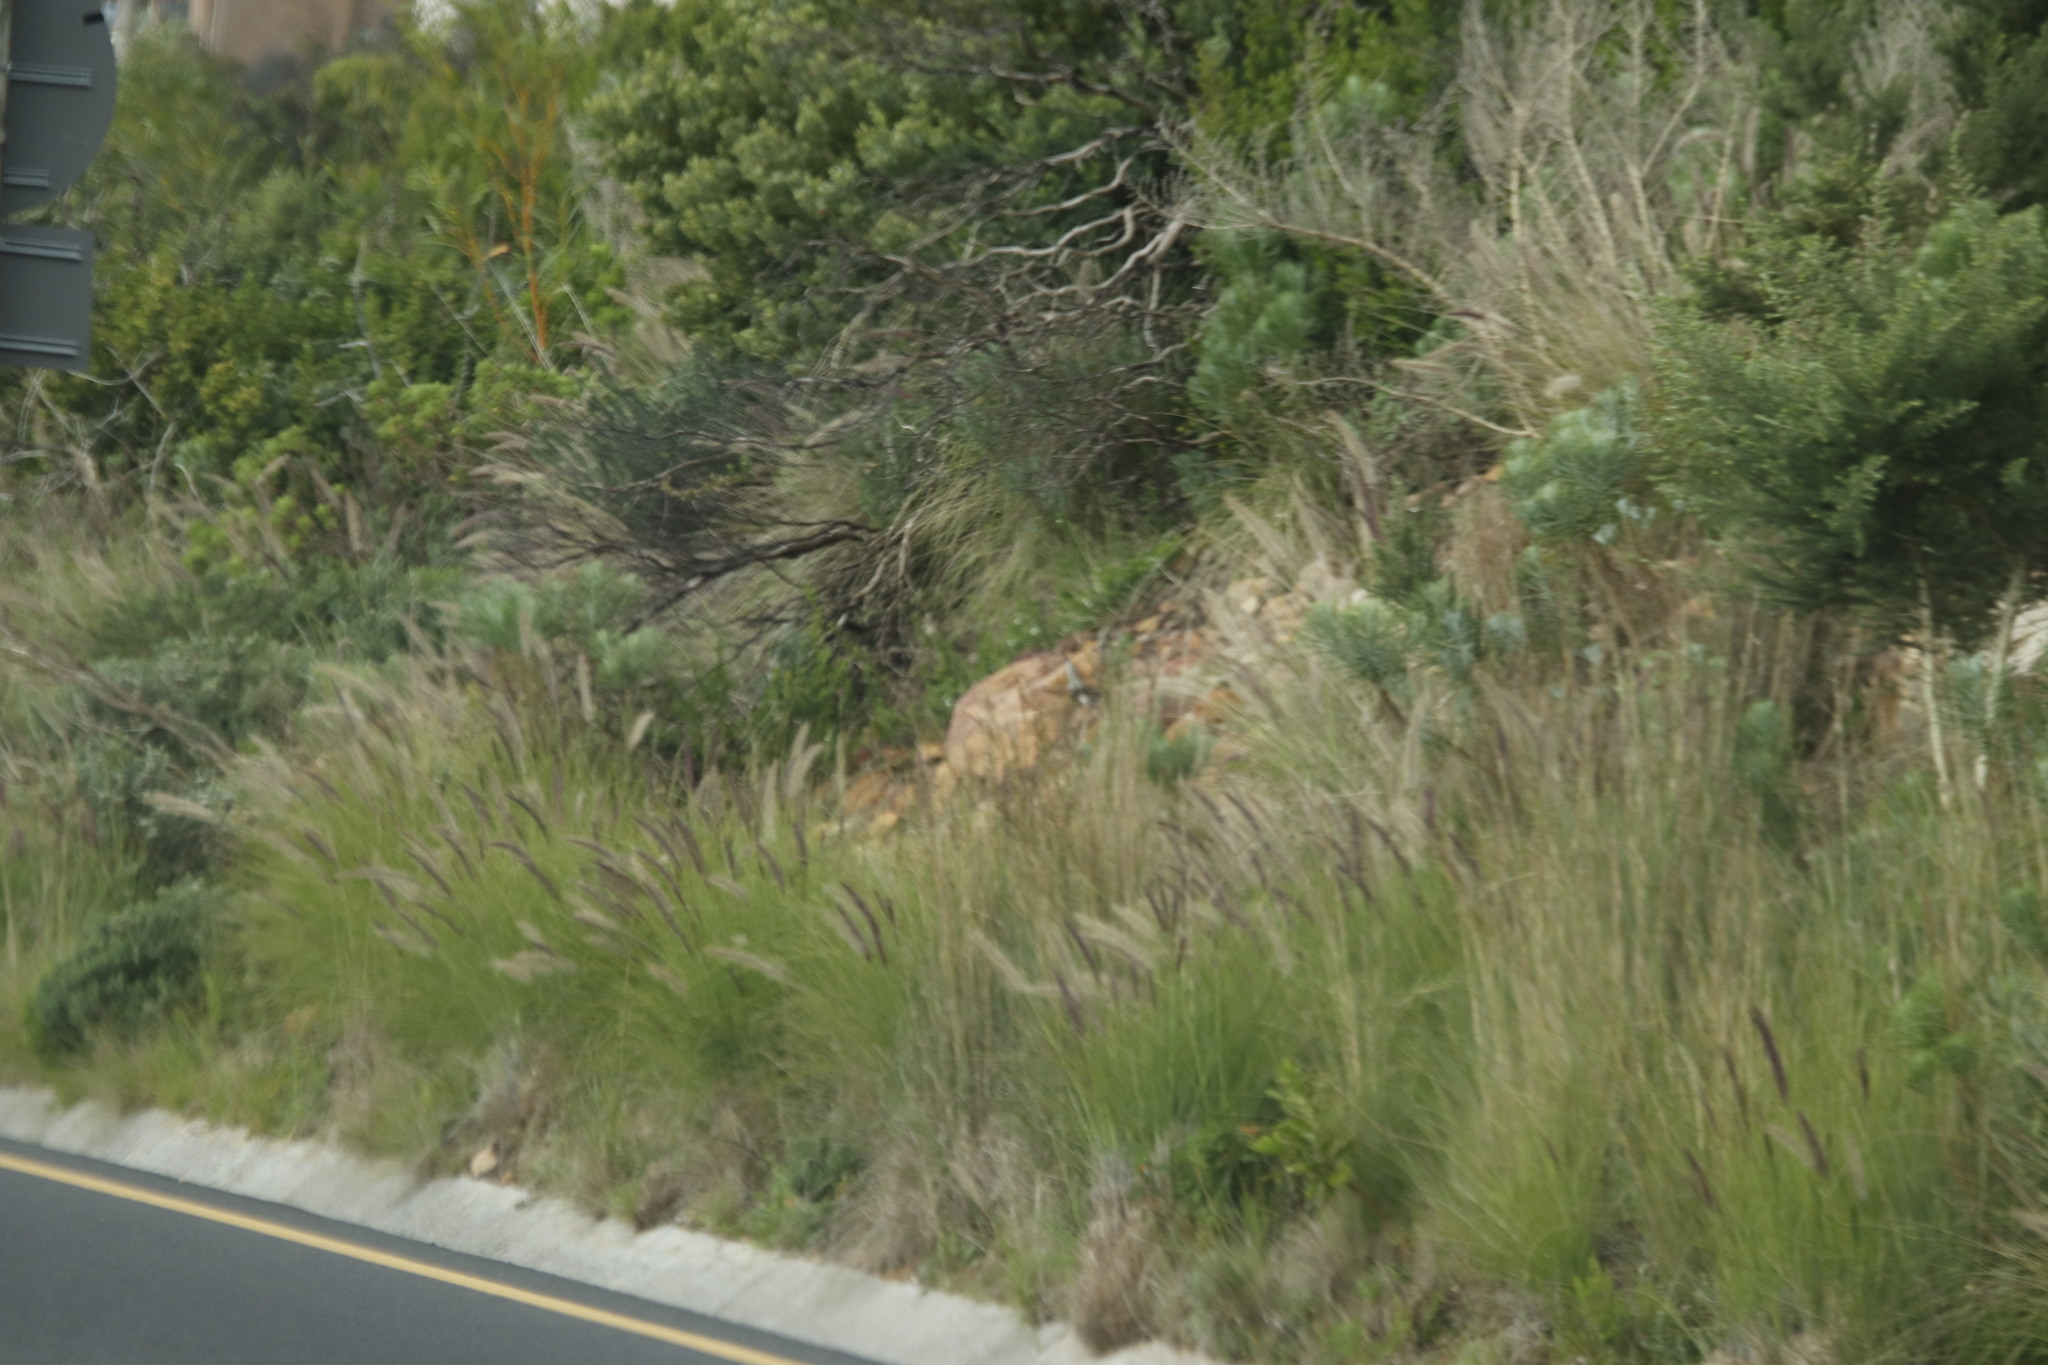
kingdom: Plantae
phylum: Tracheophyta
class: Liliopsida
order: Poales
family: Poaceae
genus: Cenchrus
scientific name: Cenchrus setaceus
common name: Crimson fountaingrass
